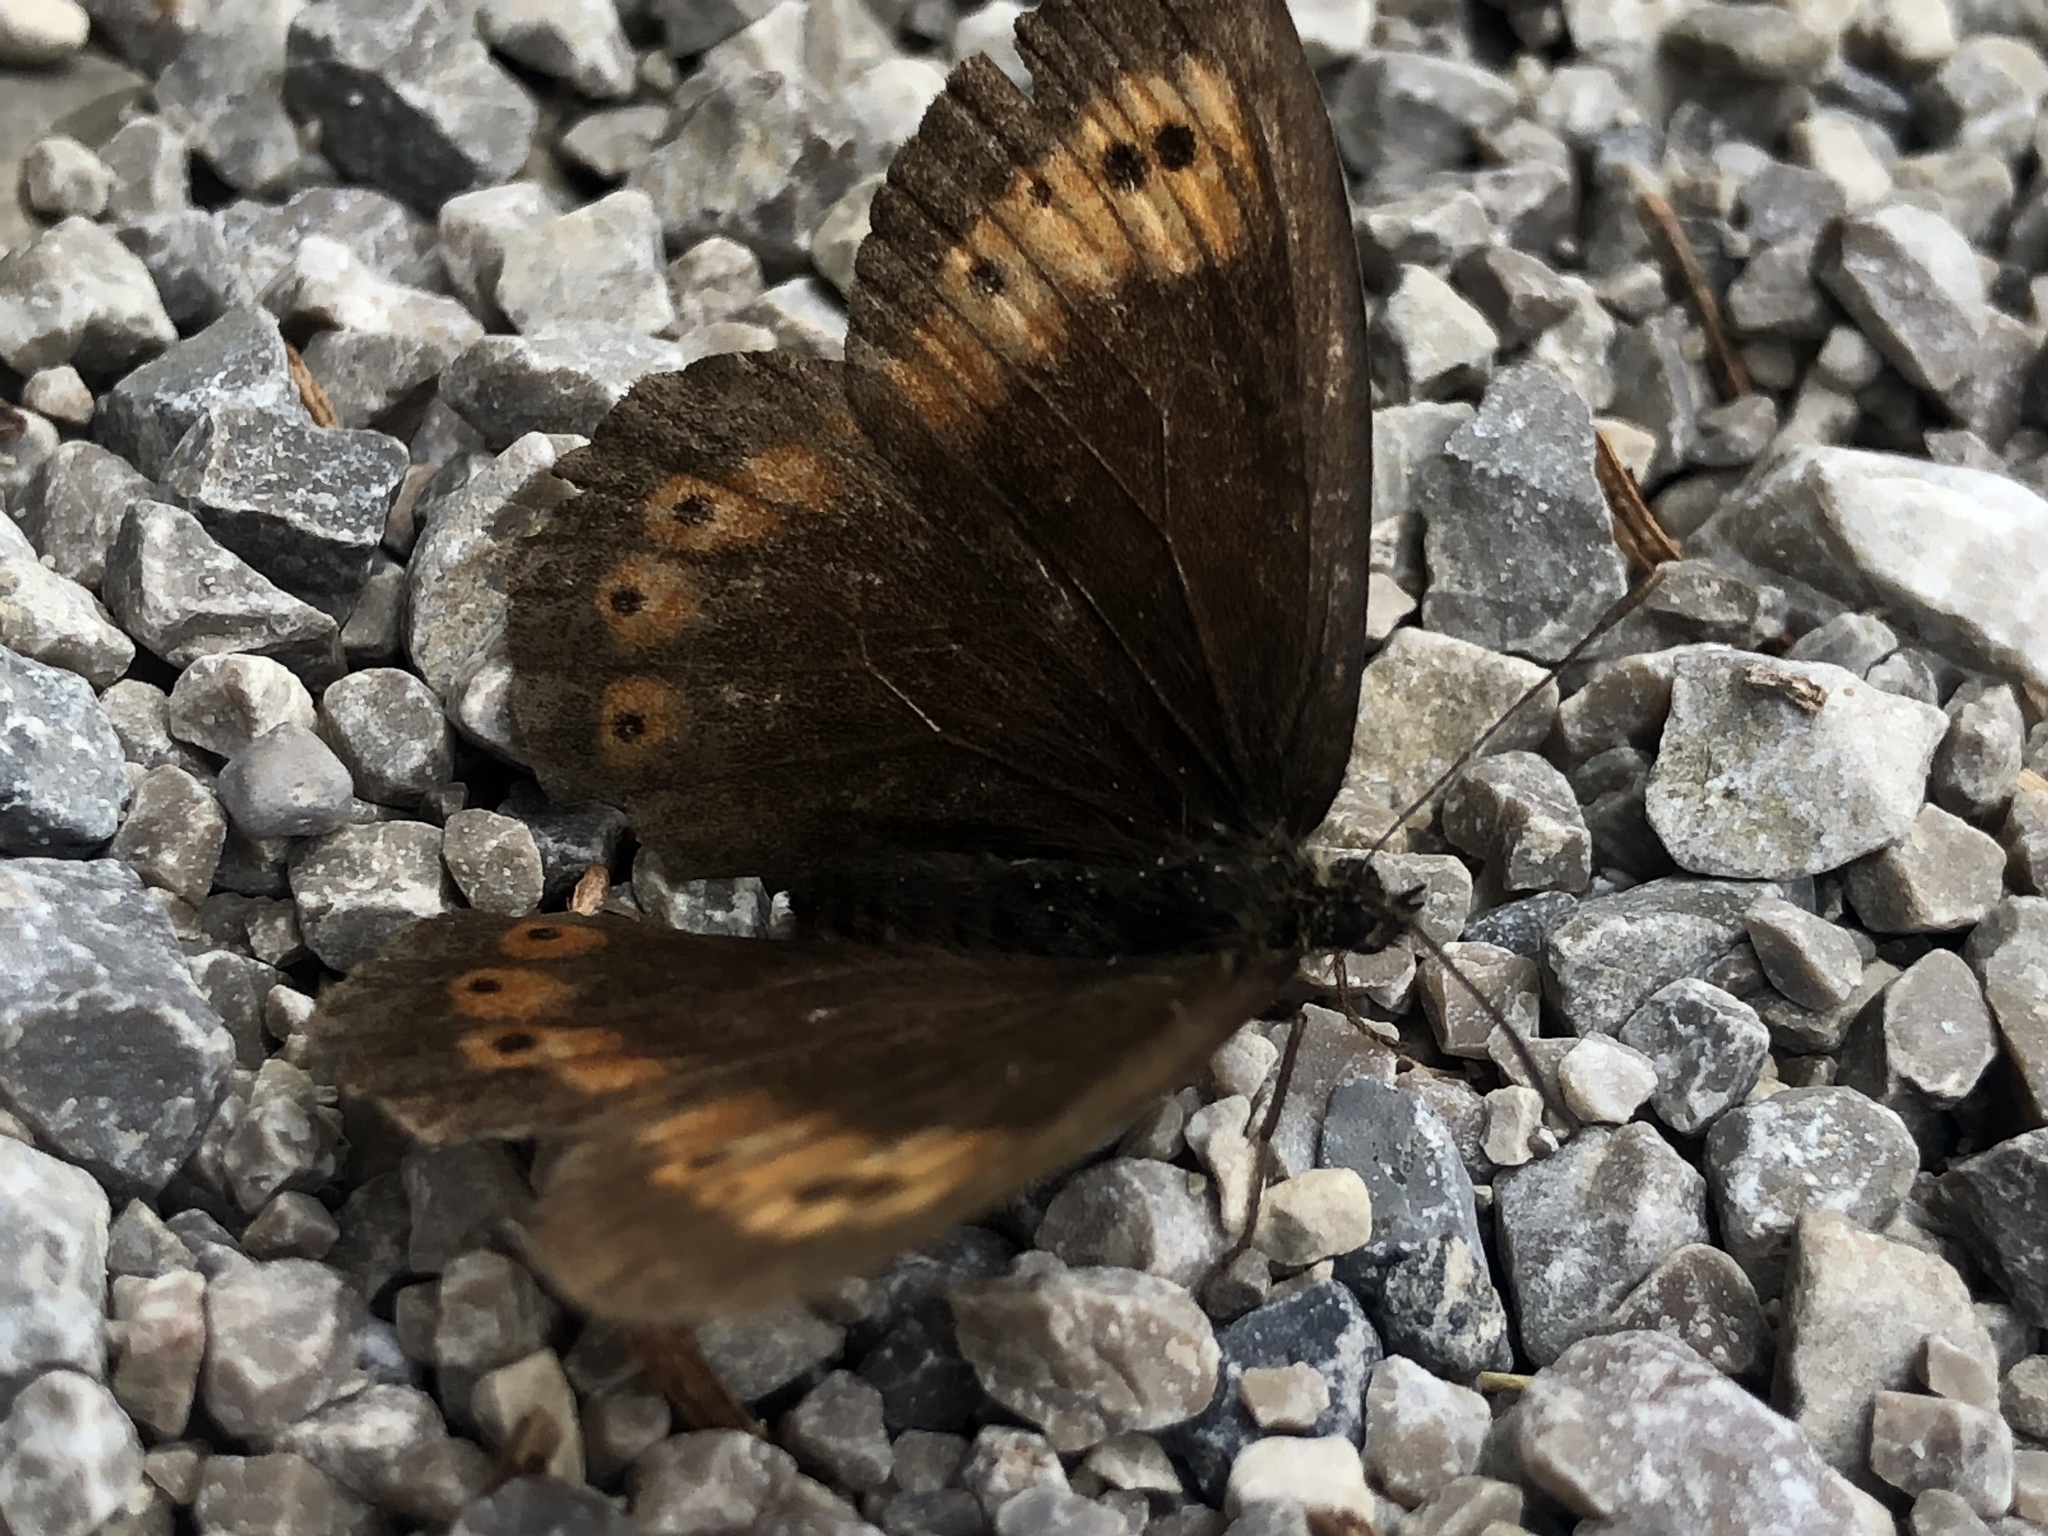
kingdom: Animalia
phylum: Arthropoda
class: Insecta
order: Lepidoptera
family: Nymphalidae
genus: Erebia
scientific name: Erebia euryale
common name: Large ringlet
